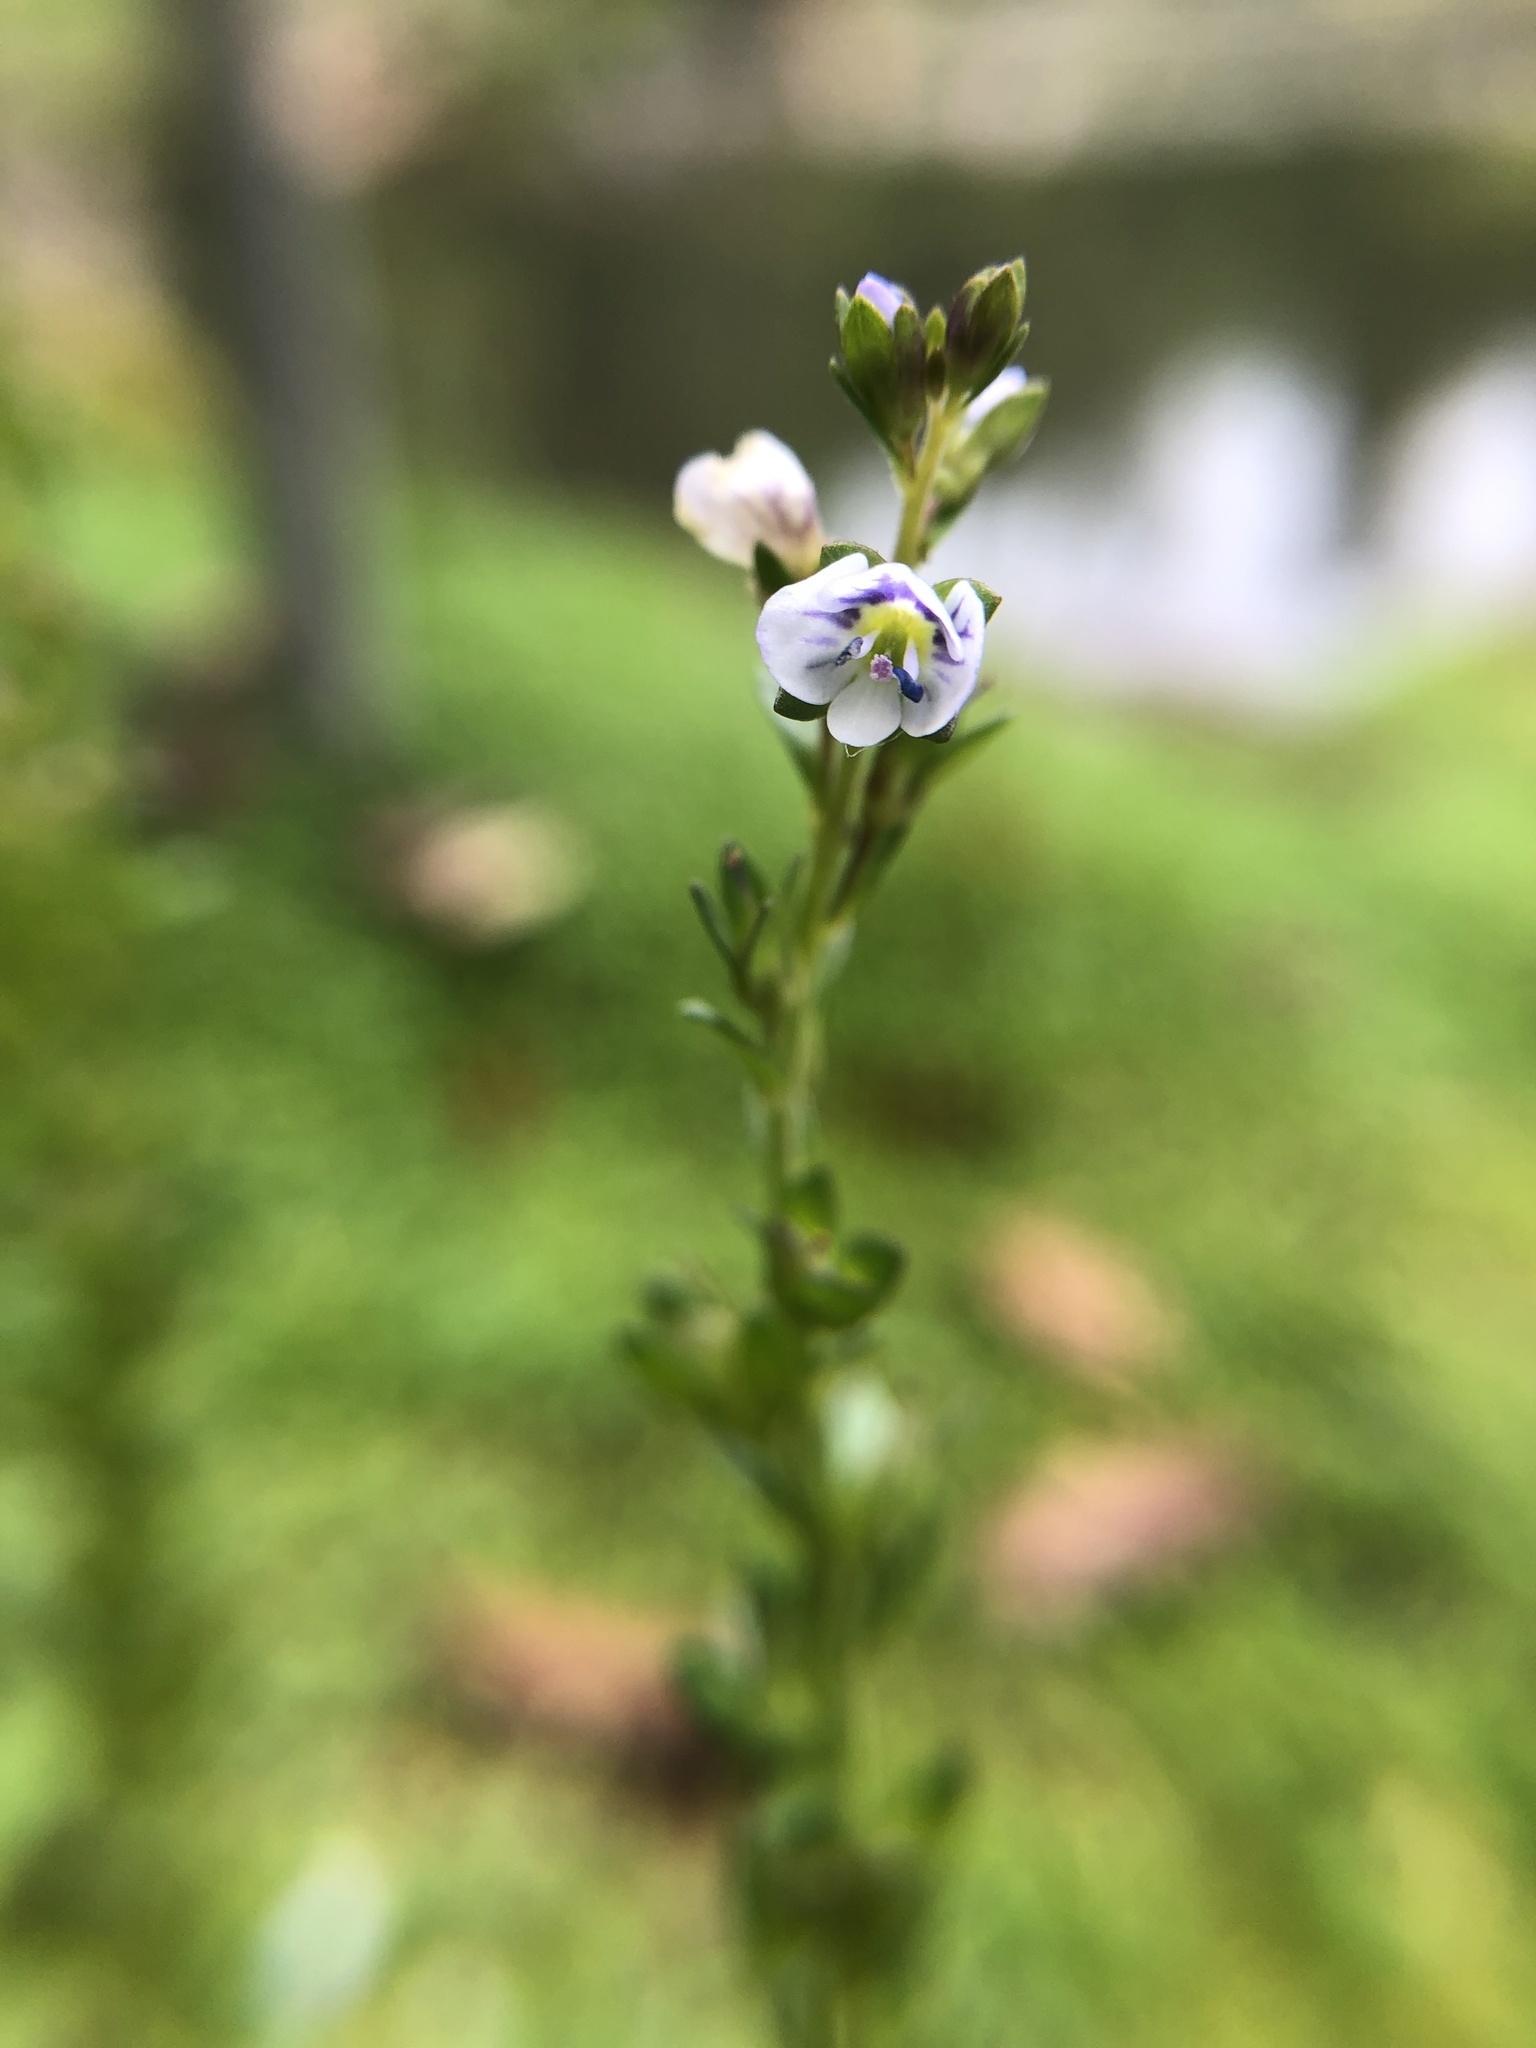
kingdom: Plantae
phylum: Tracheophyta
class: Magnoliopsida
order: Lamiales
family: Plantaginaceae
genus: Veronica
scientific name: Veronica serpyllifolia
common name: Thyme-leaved speedwell
